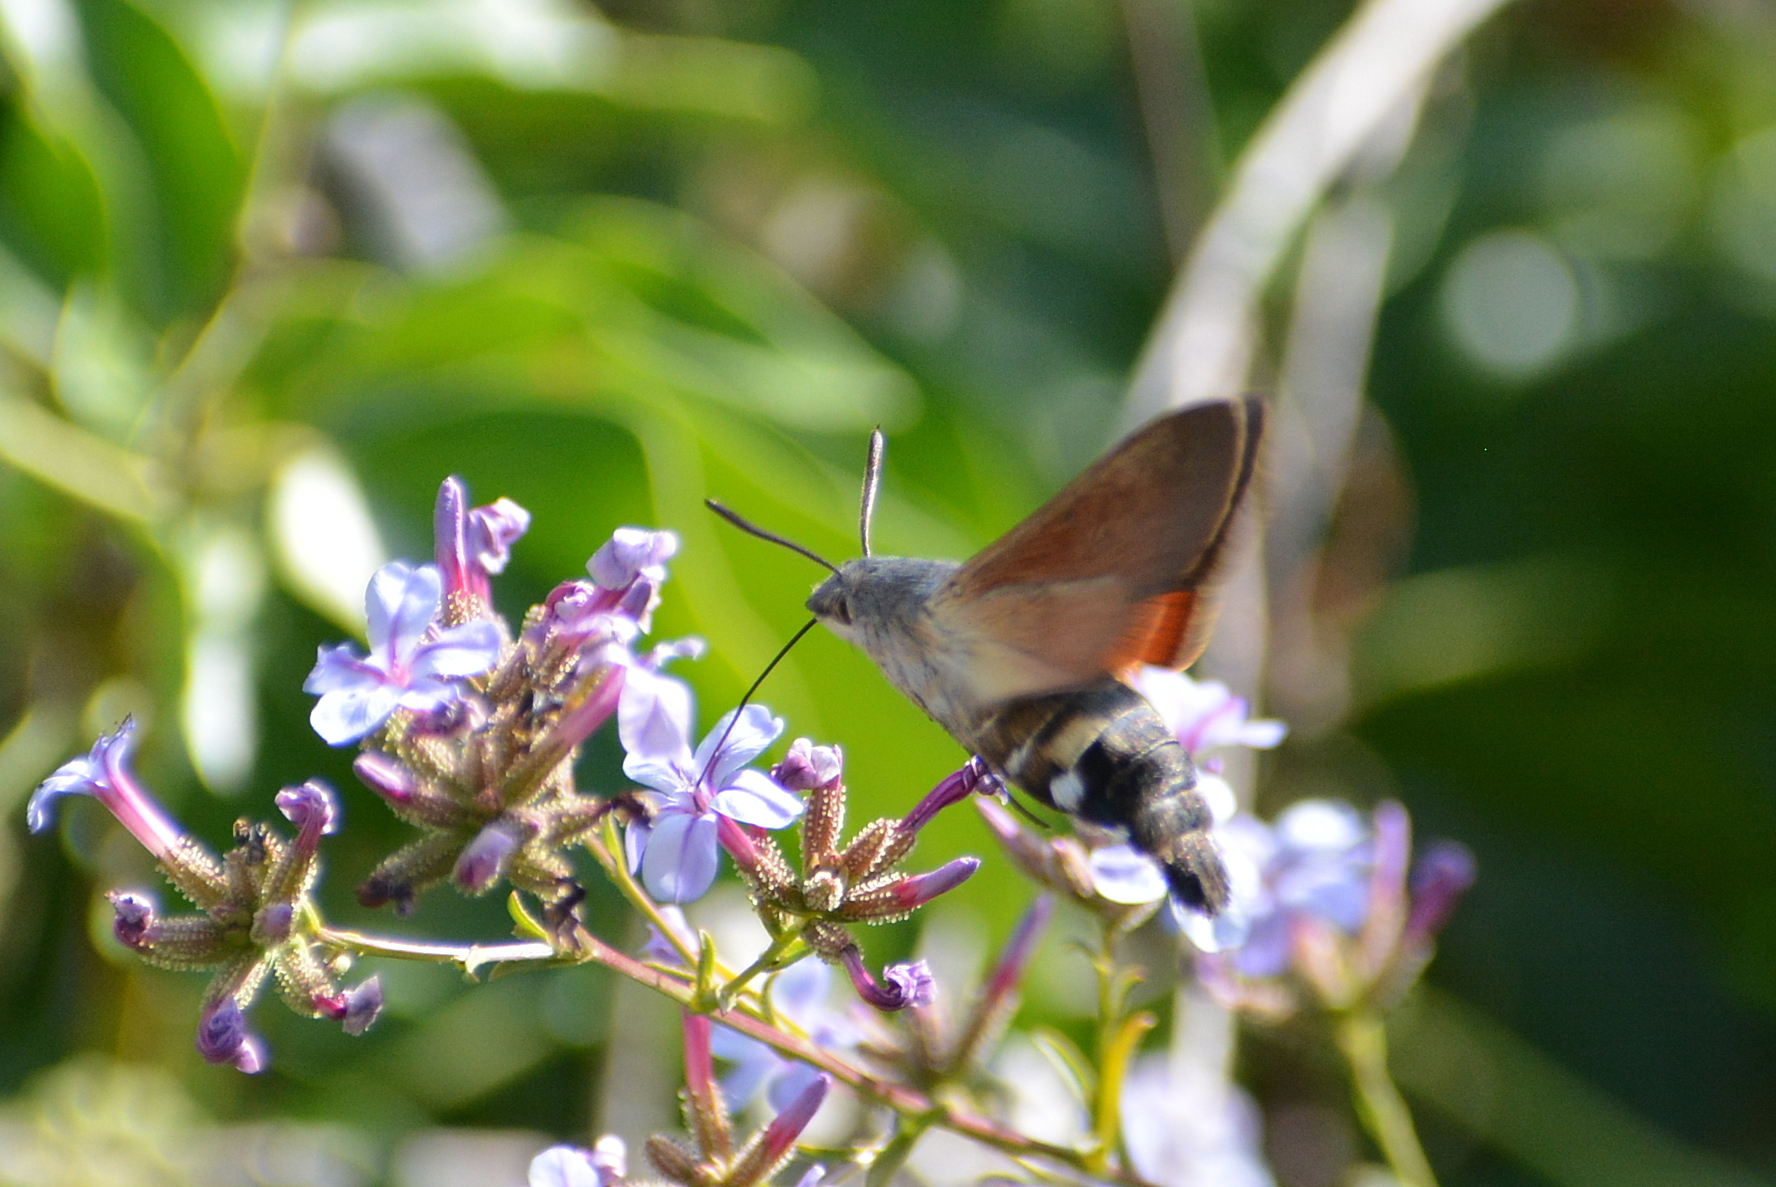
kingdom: Animalia
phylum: Arthropoda
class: Insecta
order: Lepidoptera
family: Sphingidae
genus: Macroglossum
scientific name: Macroglossum stellatarum
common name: Humming-bird hawk-moth
